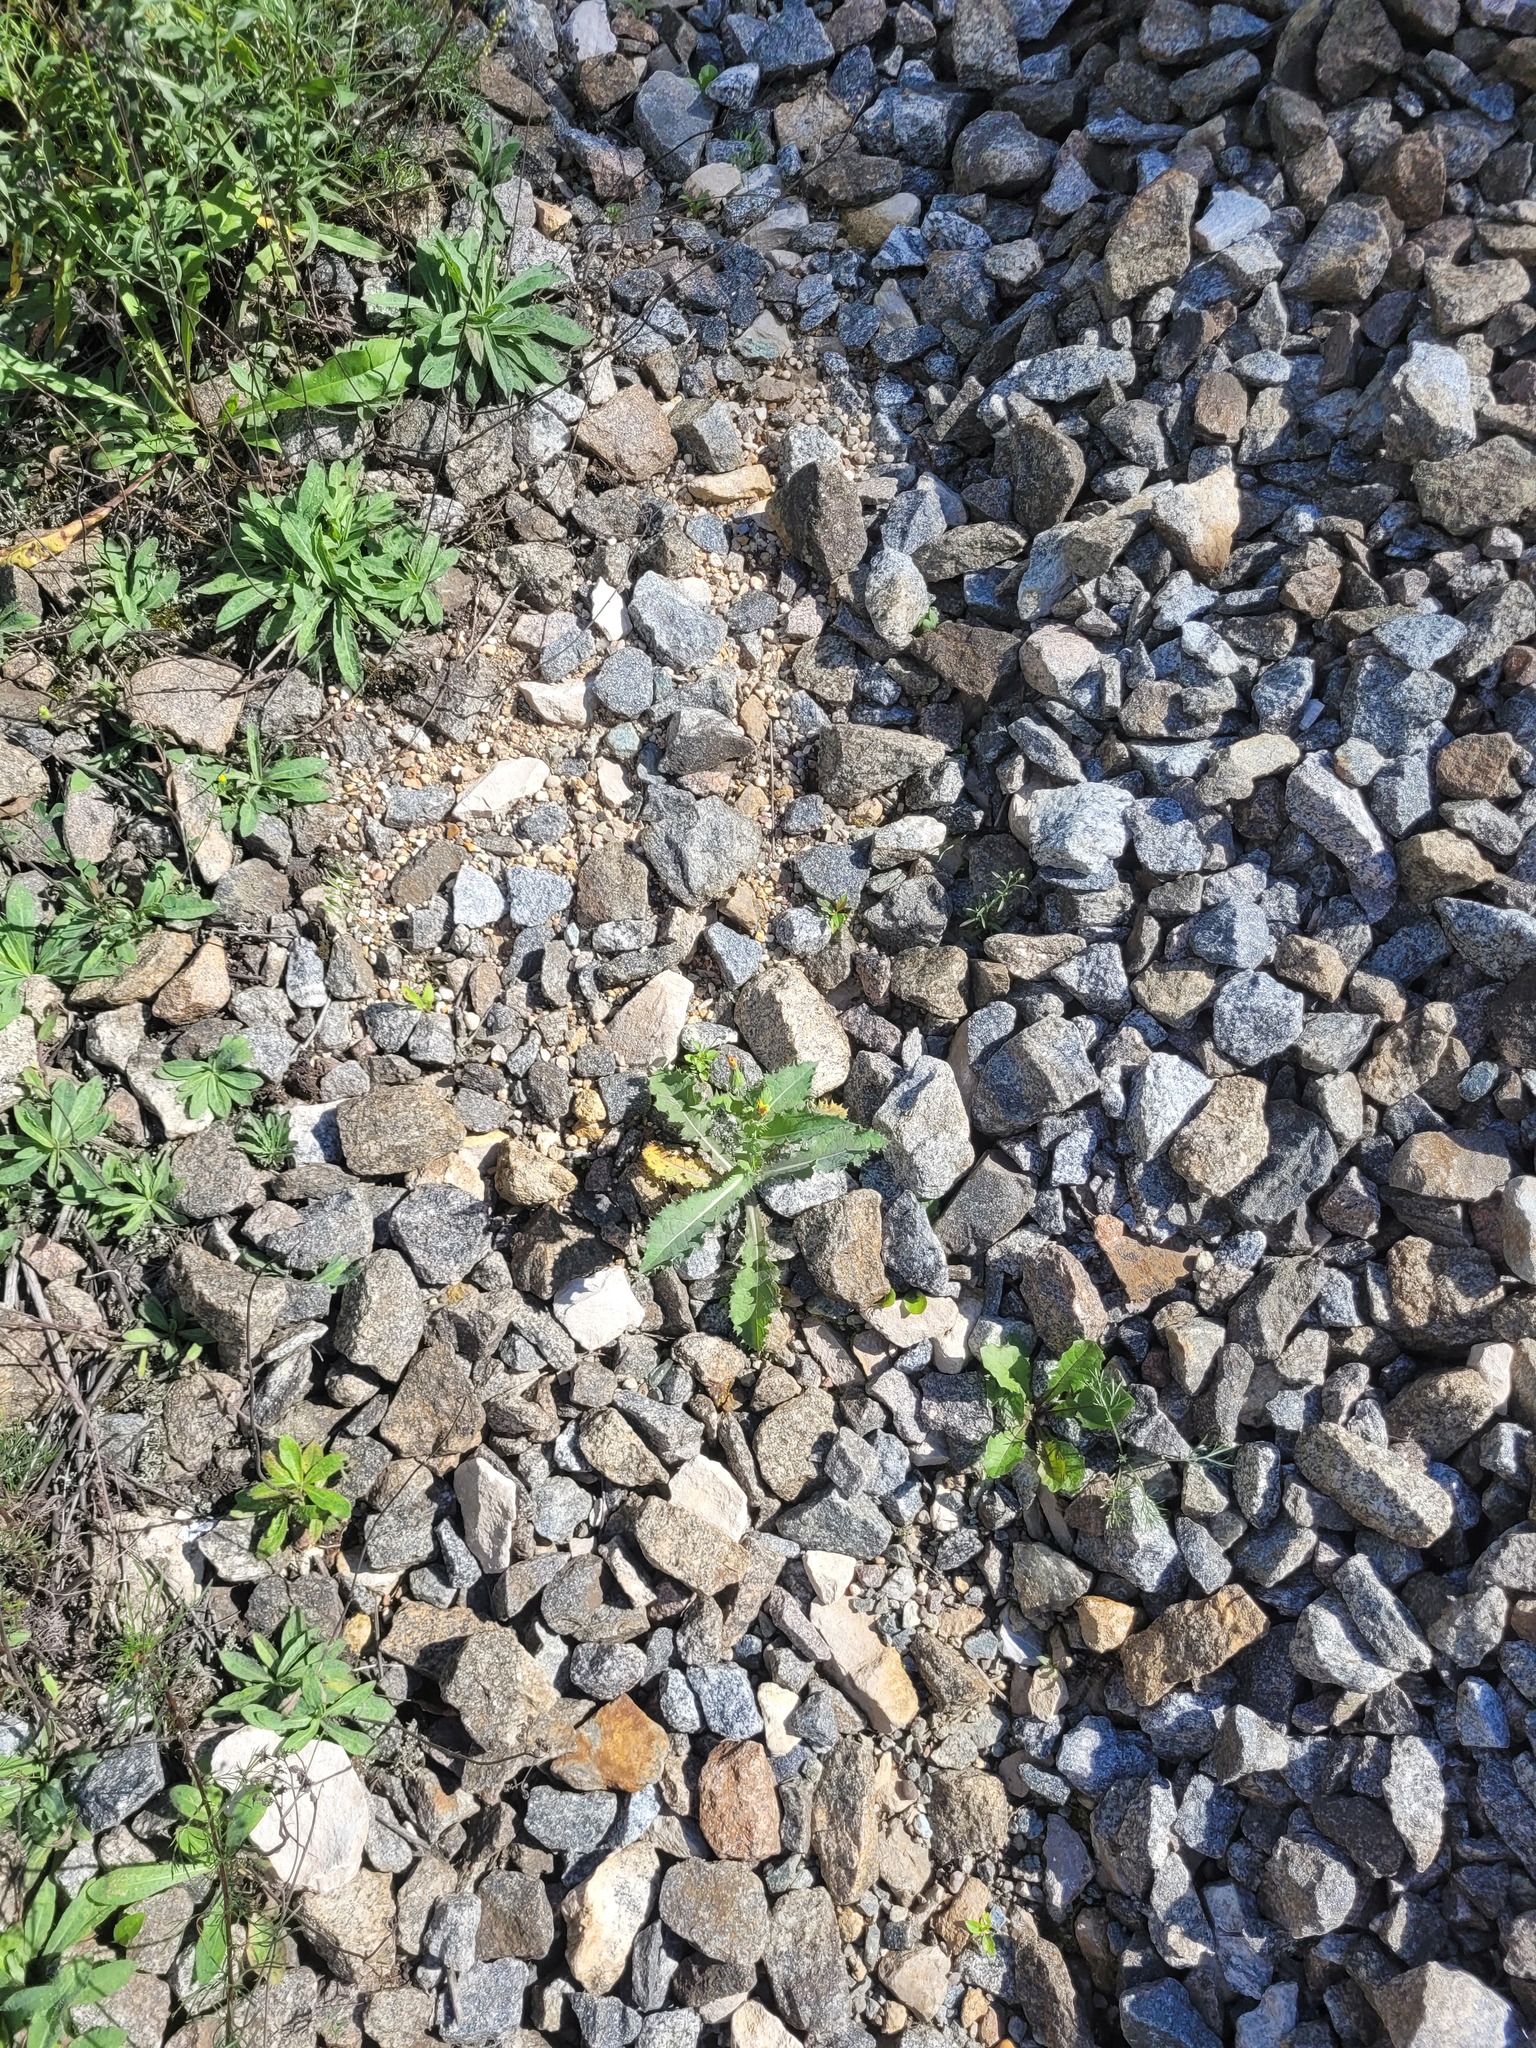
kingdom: Plantae
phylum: Tracheophyta
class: Magnoliopsida
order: Asterales
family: Asteraceae
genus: Sonchus
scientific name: Sonchus asper
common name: Prickly sow-thistle
